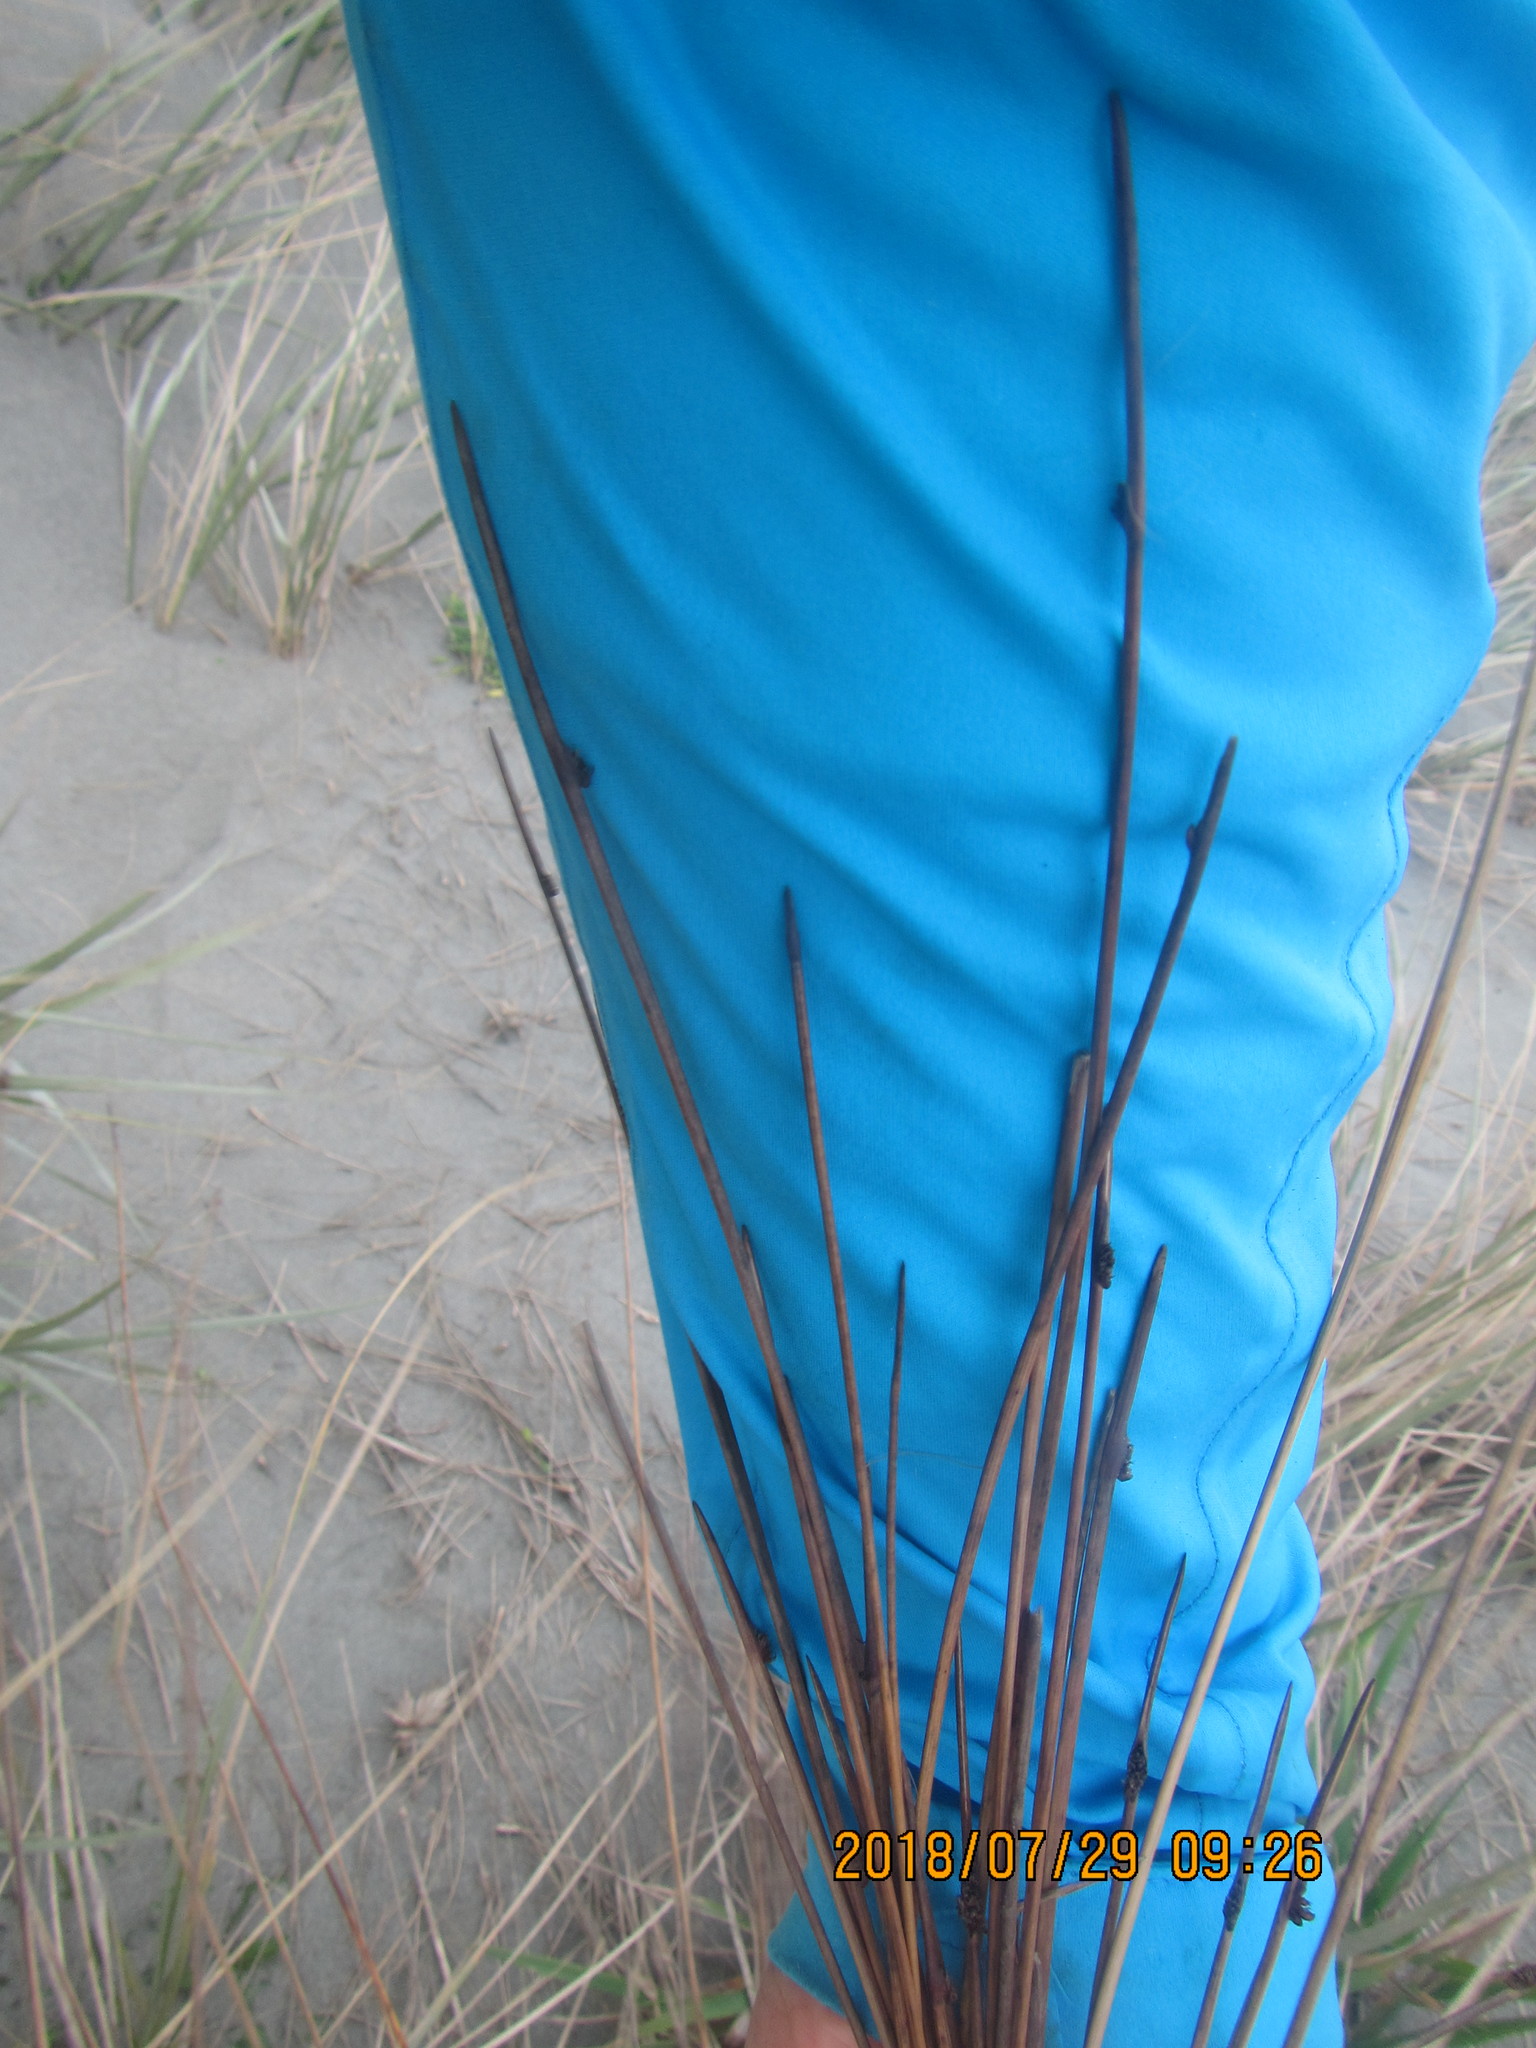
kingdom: Plantae
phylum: Tracheophyta
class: Liliopsida
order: Poales
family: Cyperaceae
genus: Ficinia
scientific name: Ficinia nodosa
